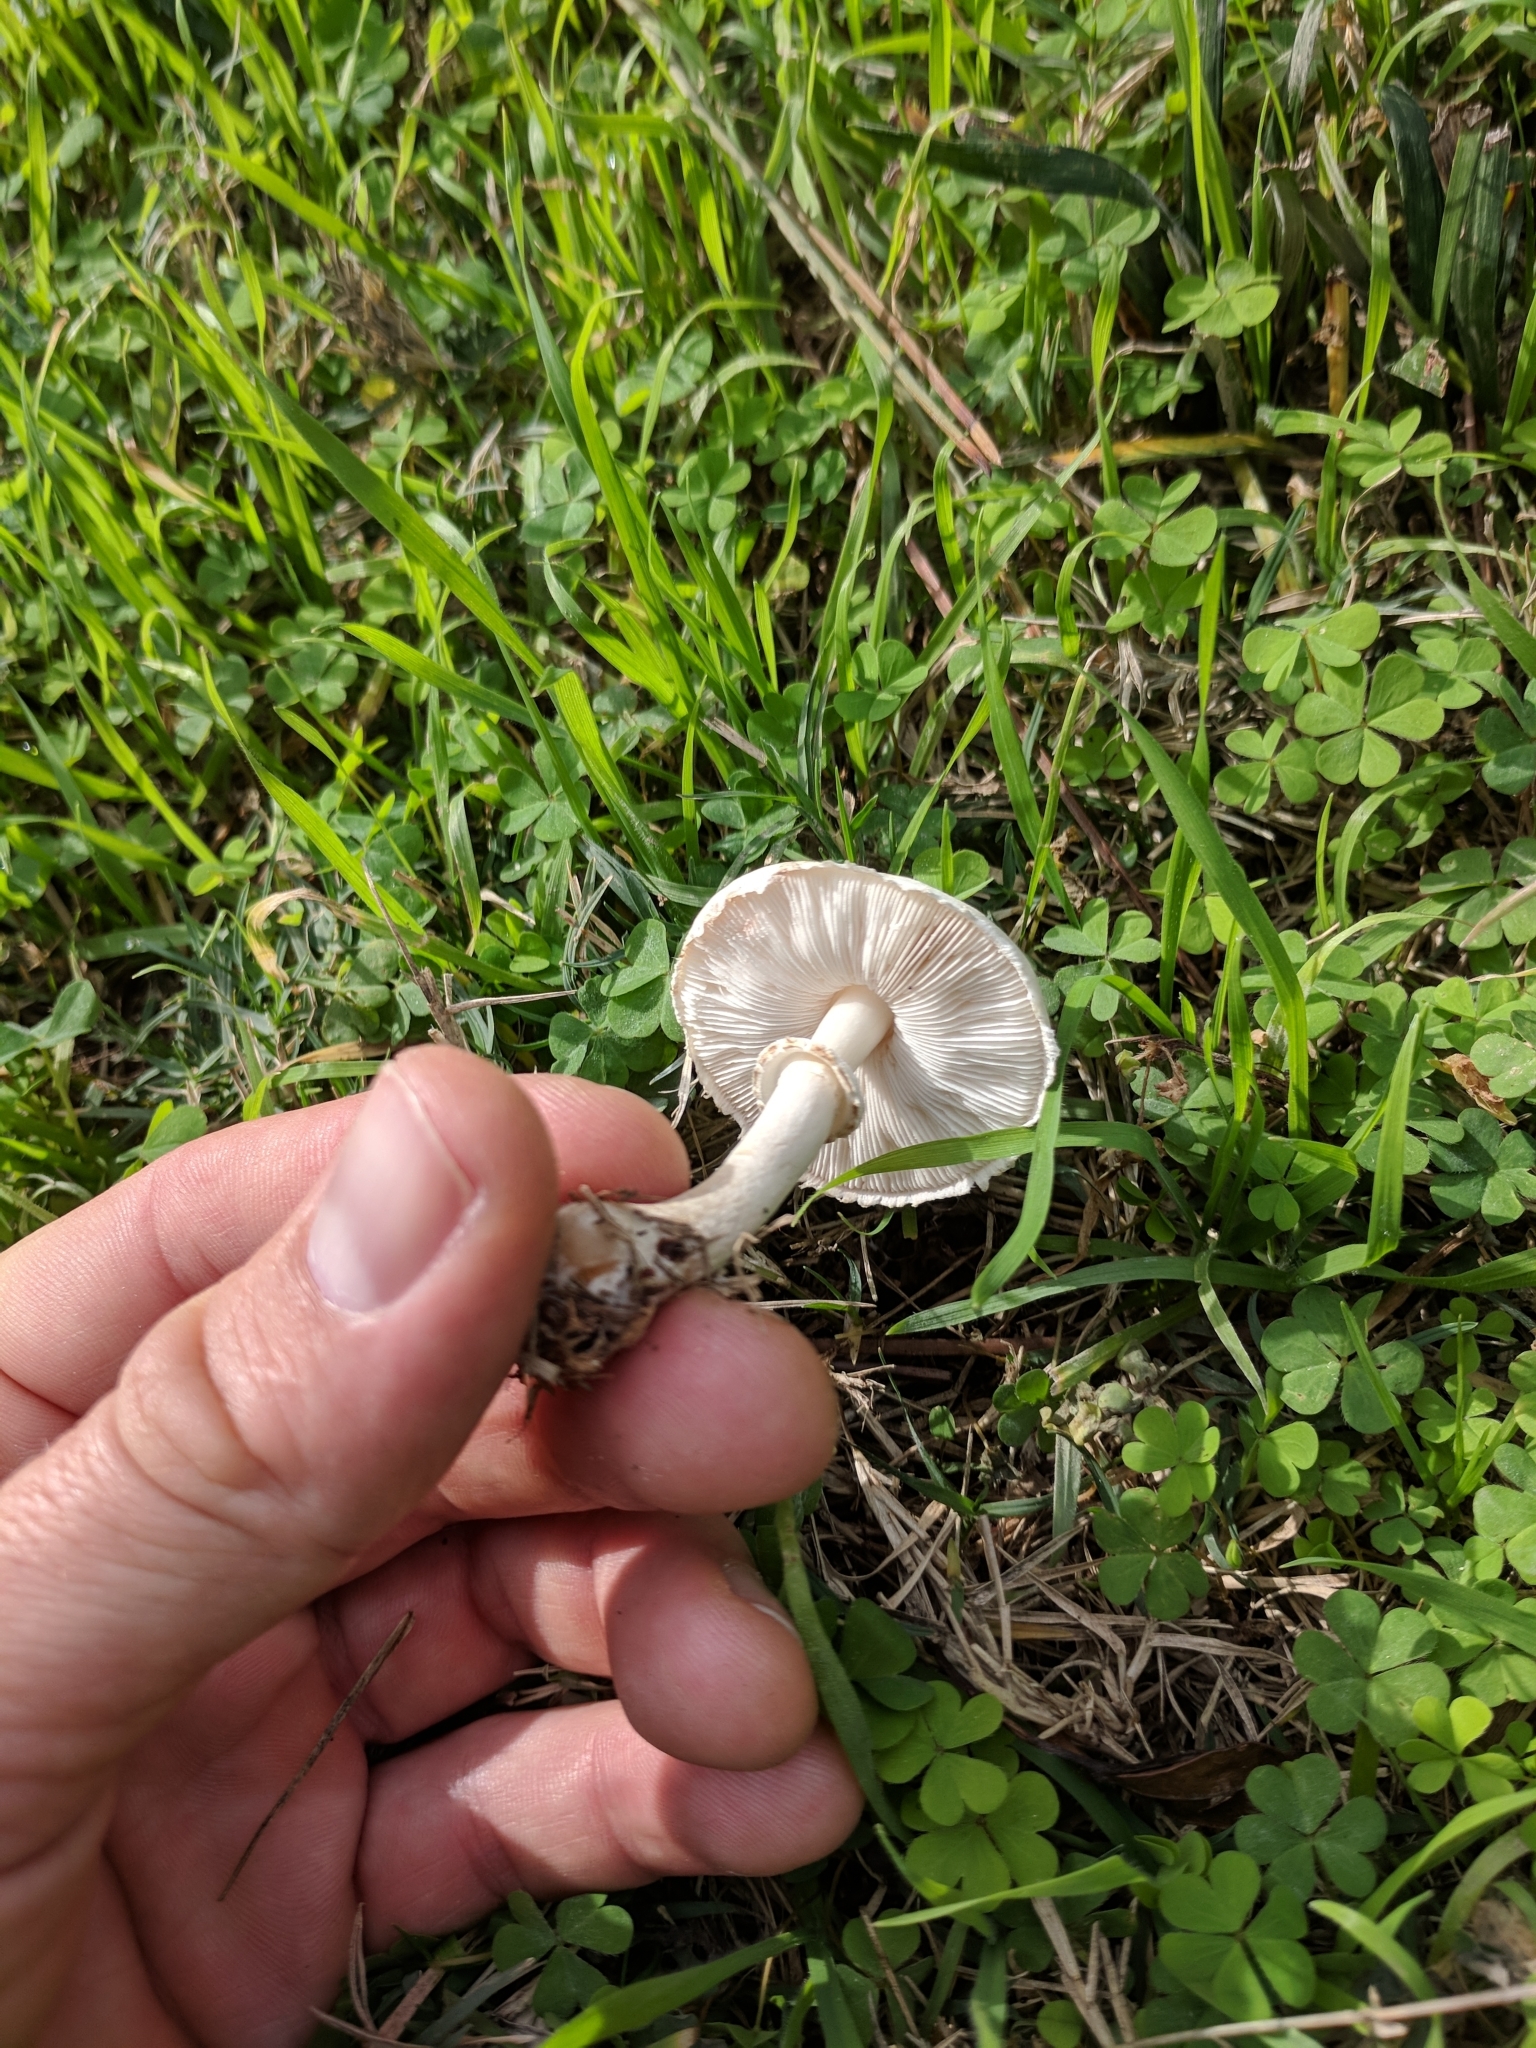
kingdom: Fungi
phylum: Basidiomycota
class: Agaricomycetes
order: Agaricales
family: Agaricaceae
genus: Leucoagaricus
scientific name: Leucoagaricus leucothites
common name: White dapperling
